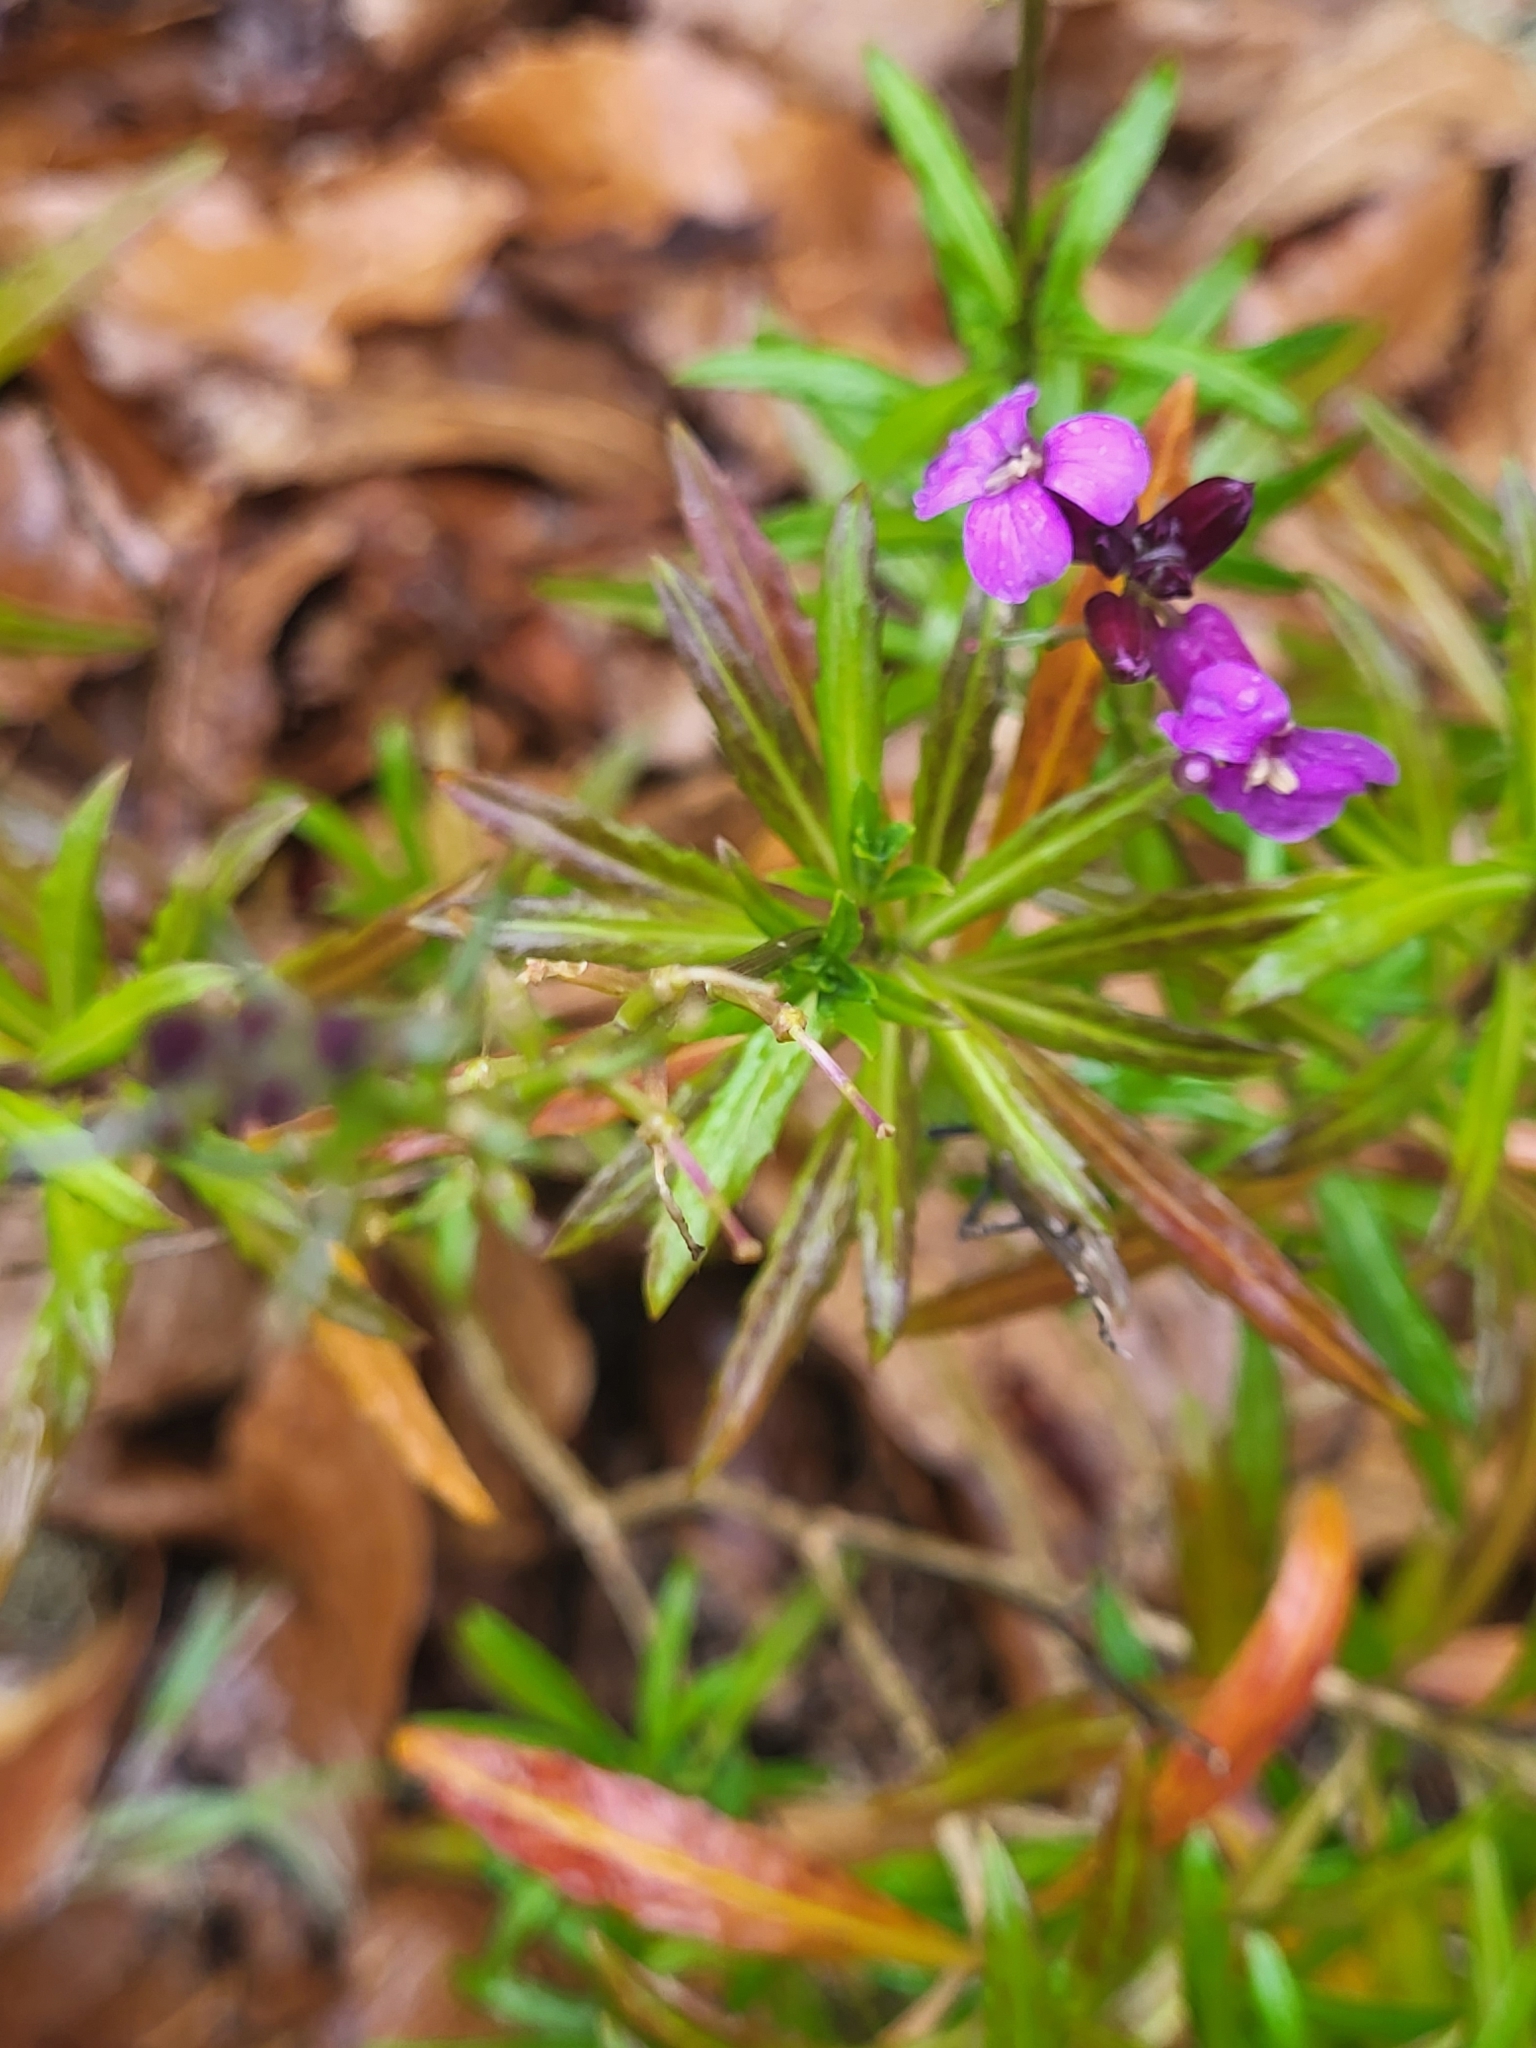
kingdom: Plantae
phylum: Tracheophyta
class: Magnoliopsida
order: Brassicales
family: Brassicaceae
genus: Erysimum
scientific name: Erysimum bicolor
